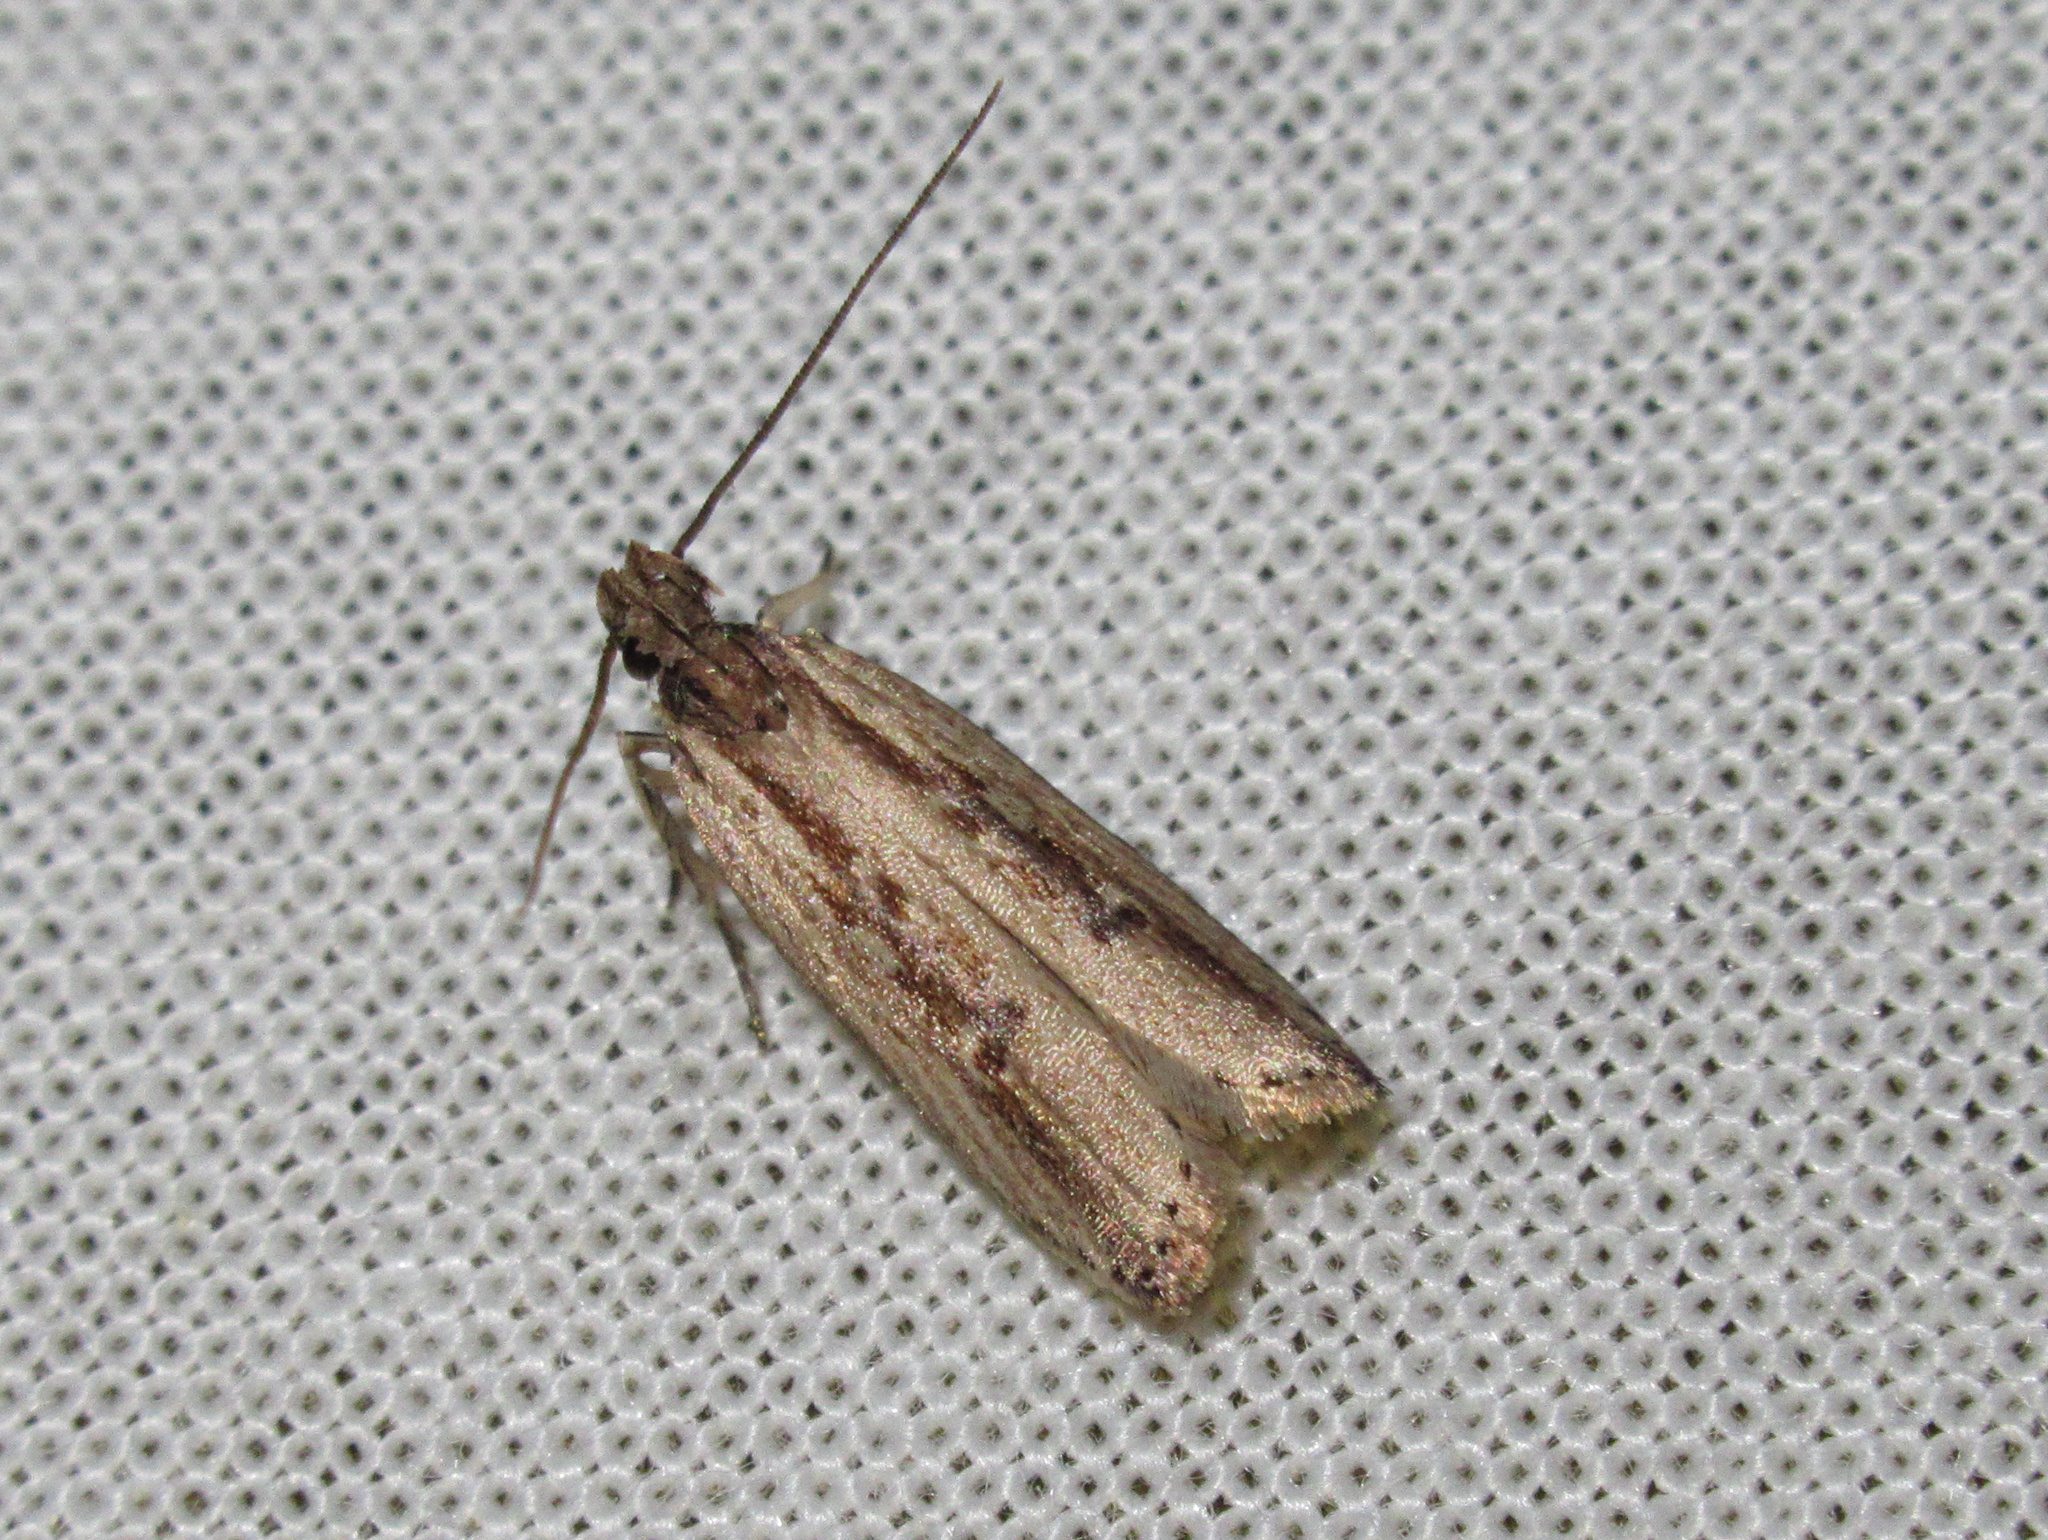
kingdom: Animalia
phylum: Arthropoda
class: Insecta
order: Lepidoptera
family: Gelechiidae
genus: Helcystogramma
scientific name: Helcystogramma phryganitis
